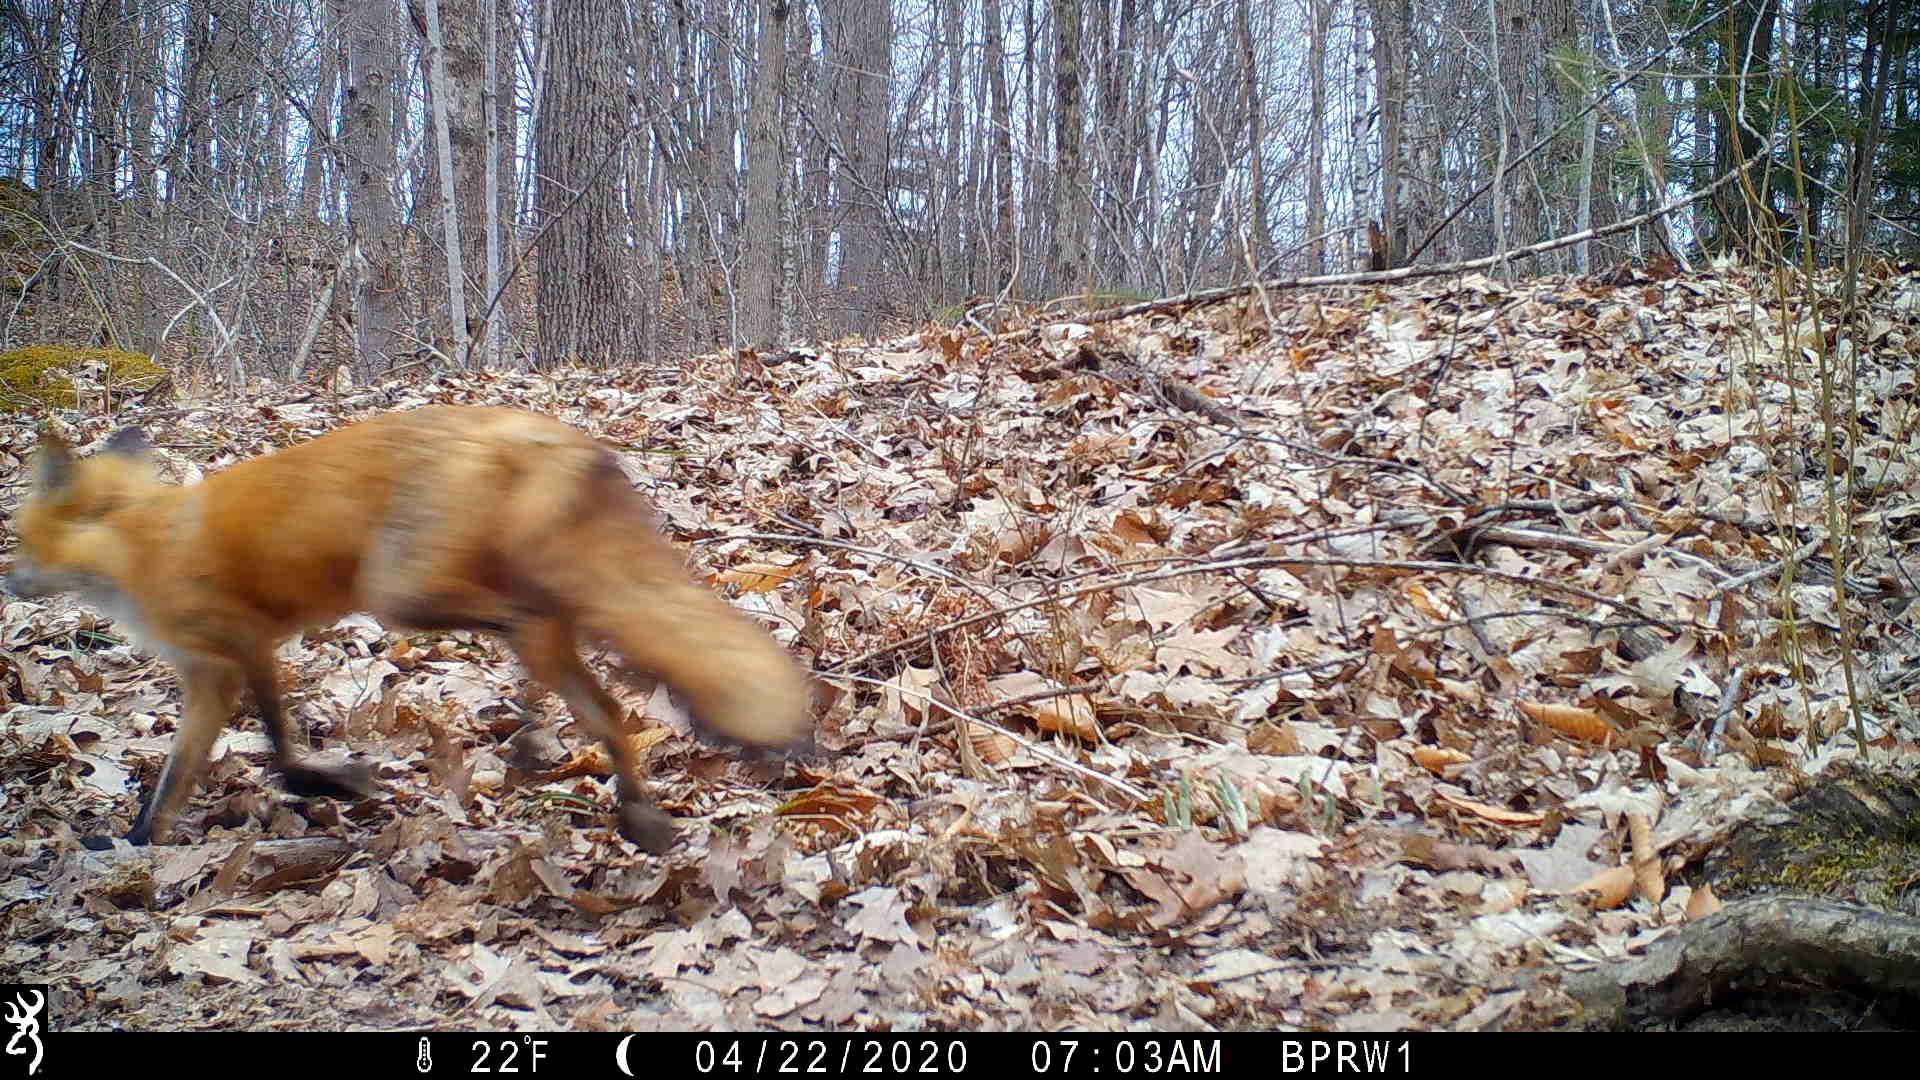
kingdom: Animalia
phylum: Chordata
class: Mammalia
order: Carnivora
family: Canidae
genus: Vulpes
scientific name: Vulpes vulpes
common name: Red fox
